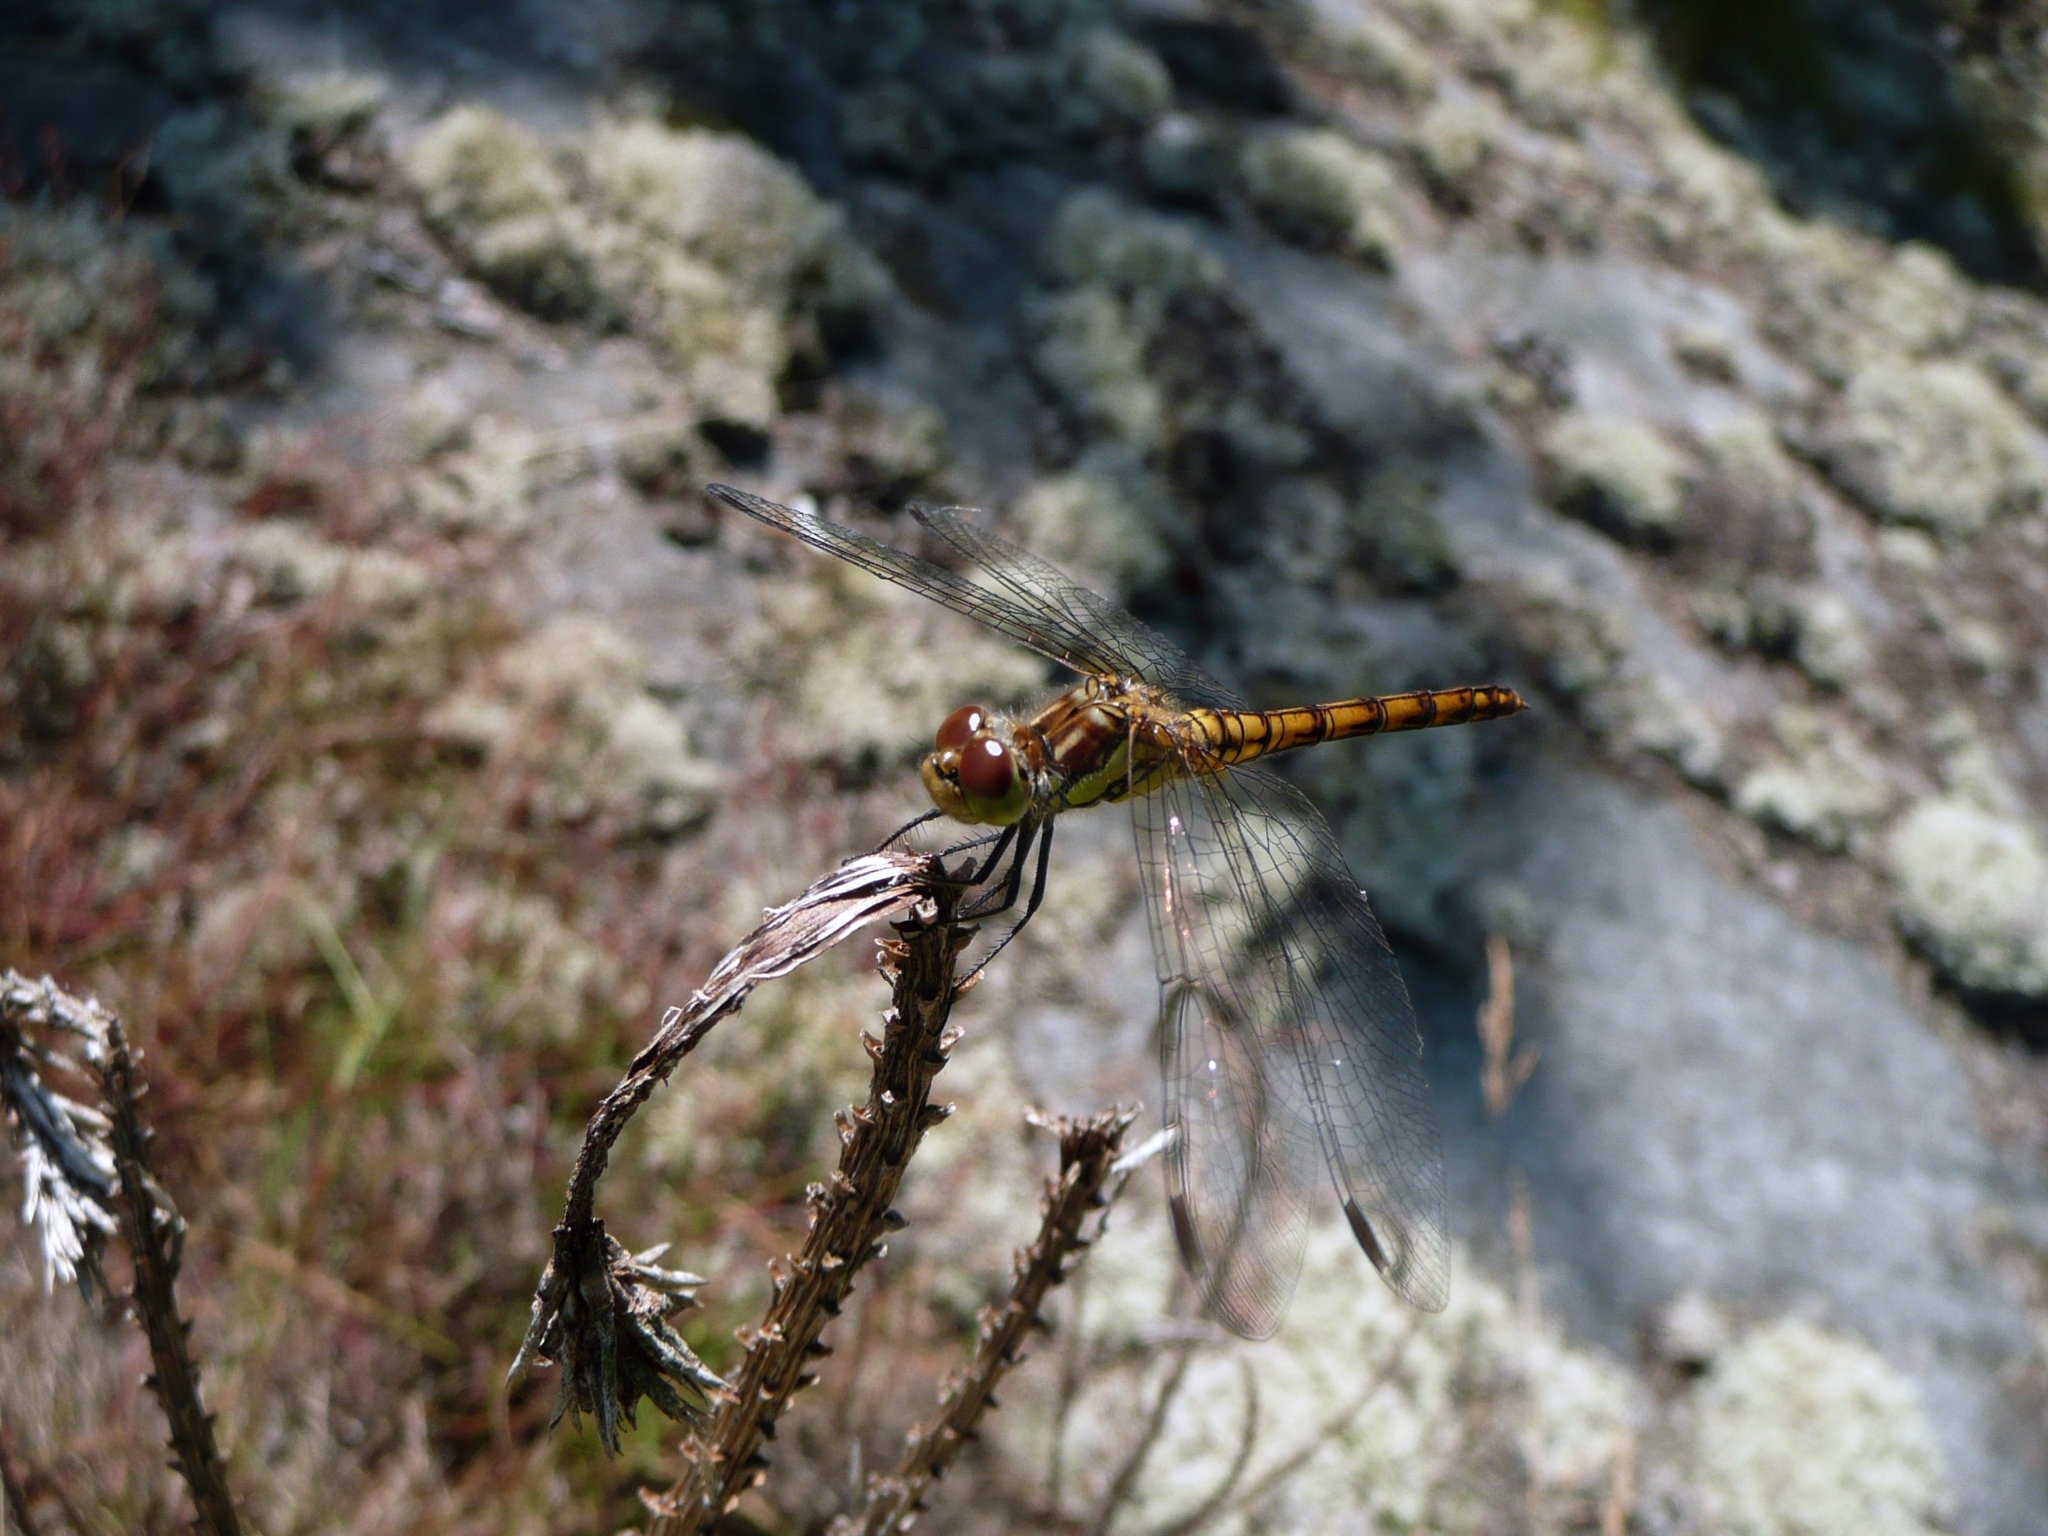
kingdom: Animalia
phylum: Arthropoda
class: Insecta
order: Odonata
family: Libellulidae
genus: Sympetrum
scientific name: Sympetrum striolatum
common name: Common darter
